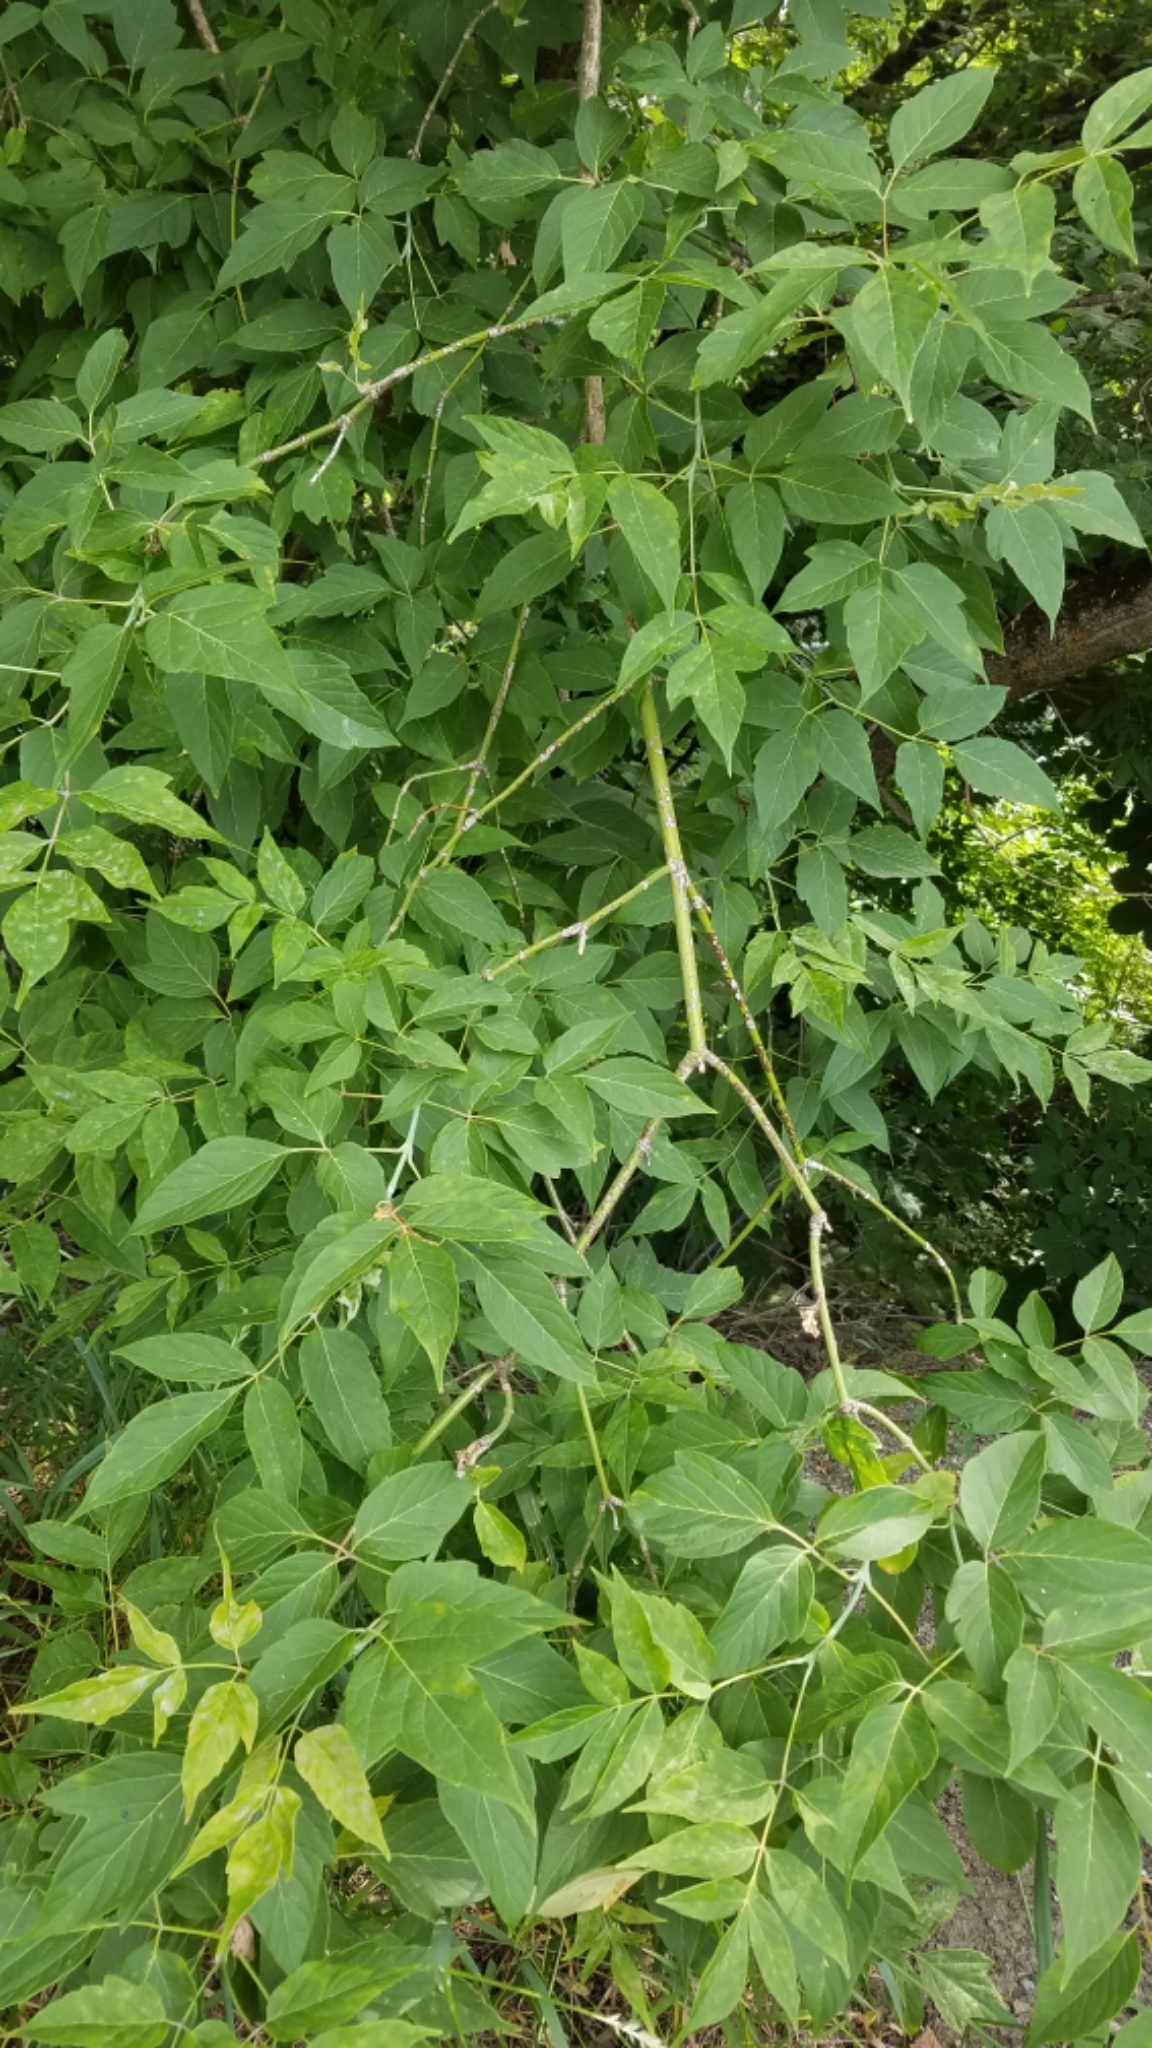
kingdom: Plantae
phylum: Tracheophyta
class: Magnoliopsida
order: Sapindales
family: Sapindaceae
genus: Acer
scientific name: Acer negundo
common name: Ashleaf maple
